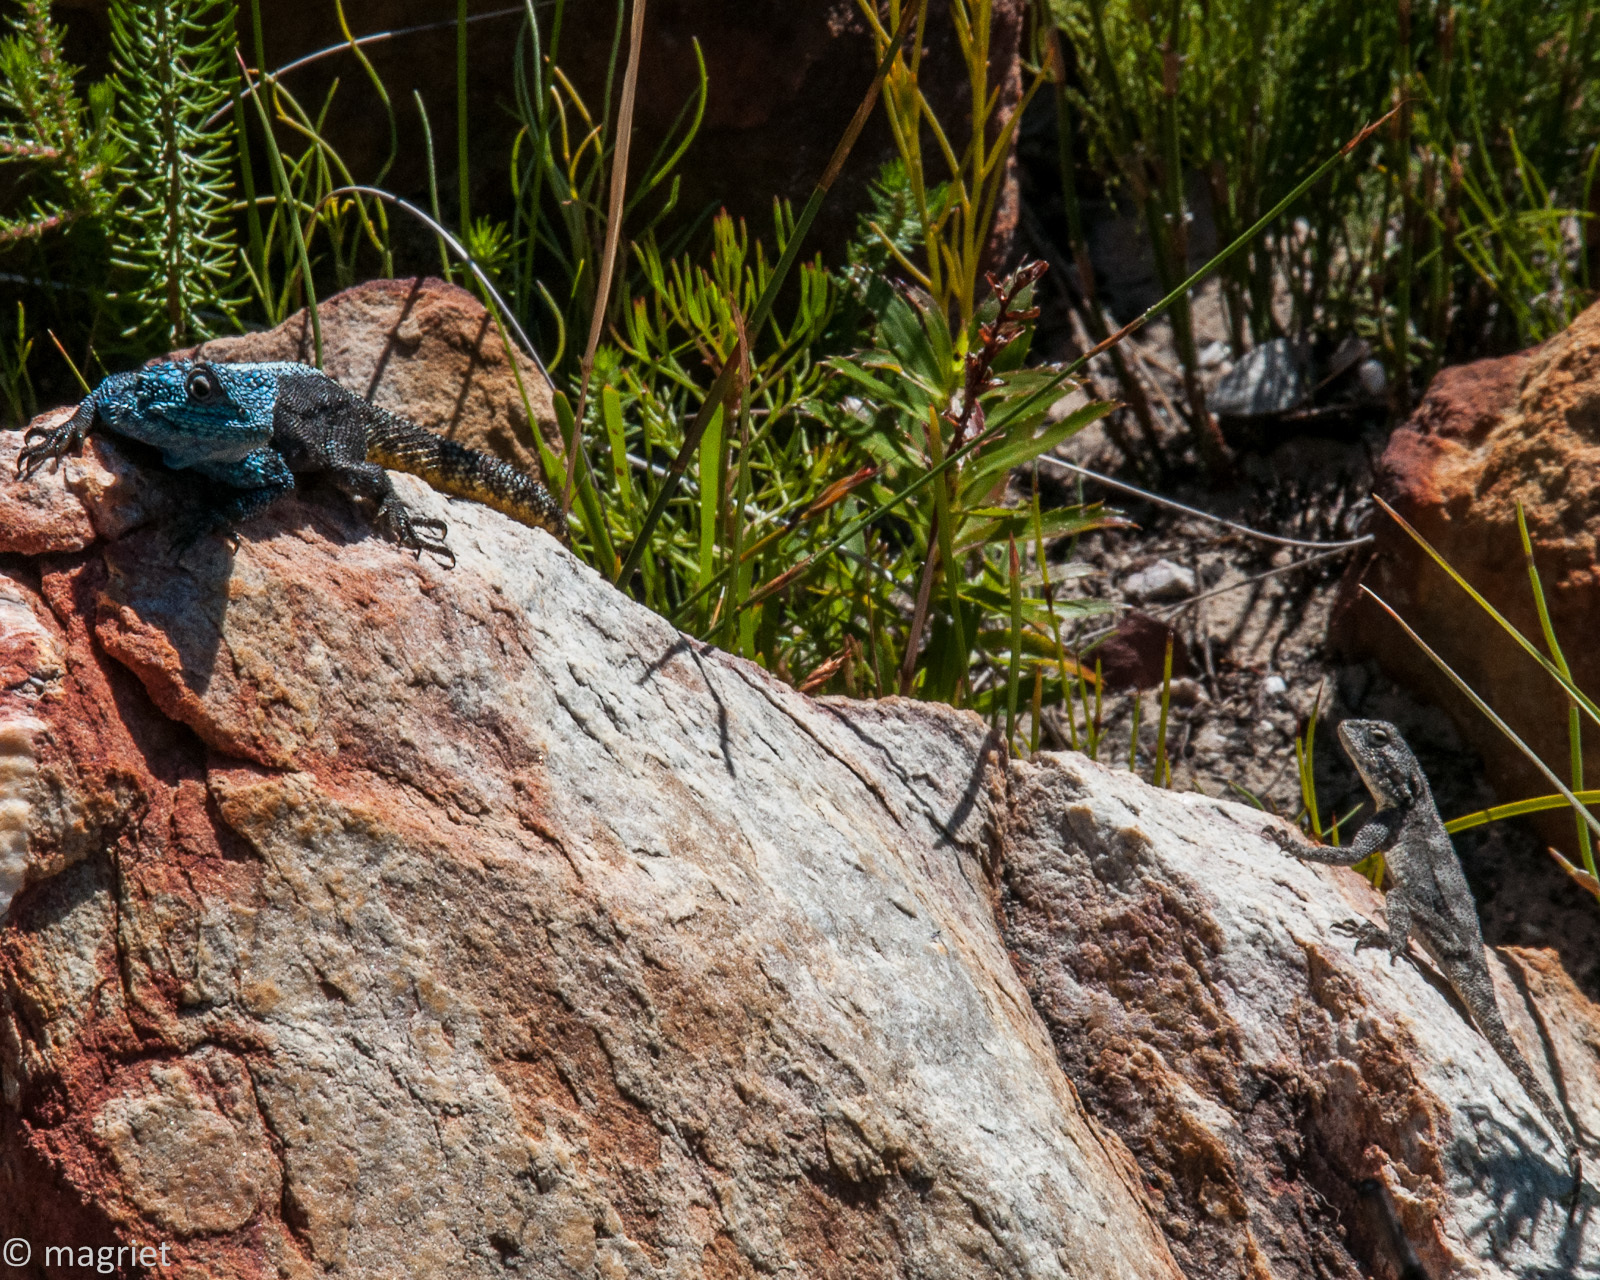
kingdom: Animalia
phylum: Chordata
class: Squamata
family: Agamidae
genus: Agama
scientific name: Agama atra
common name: Southern african rock agama
